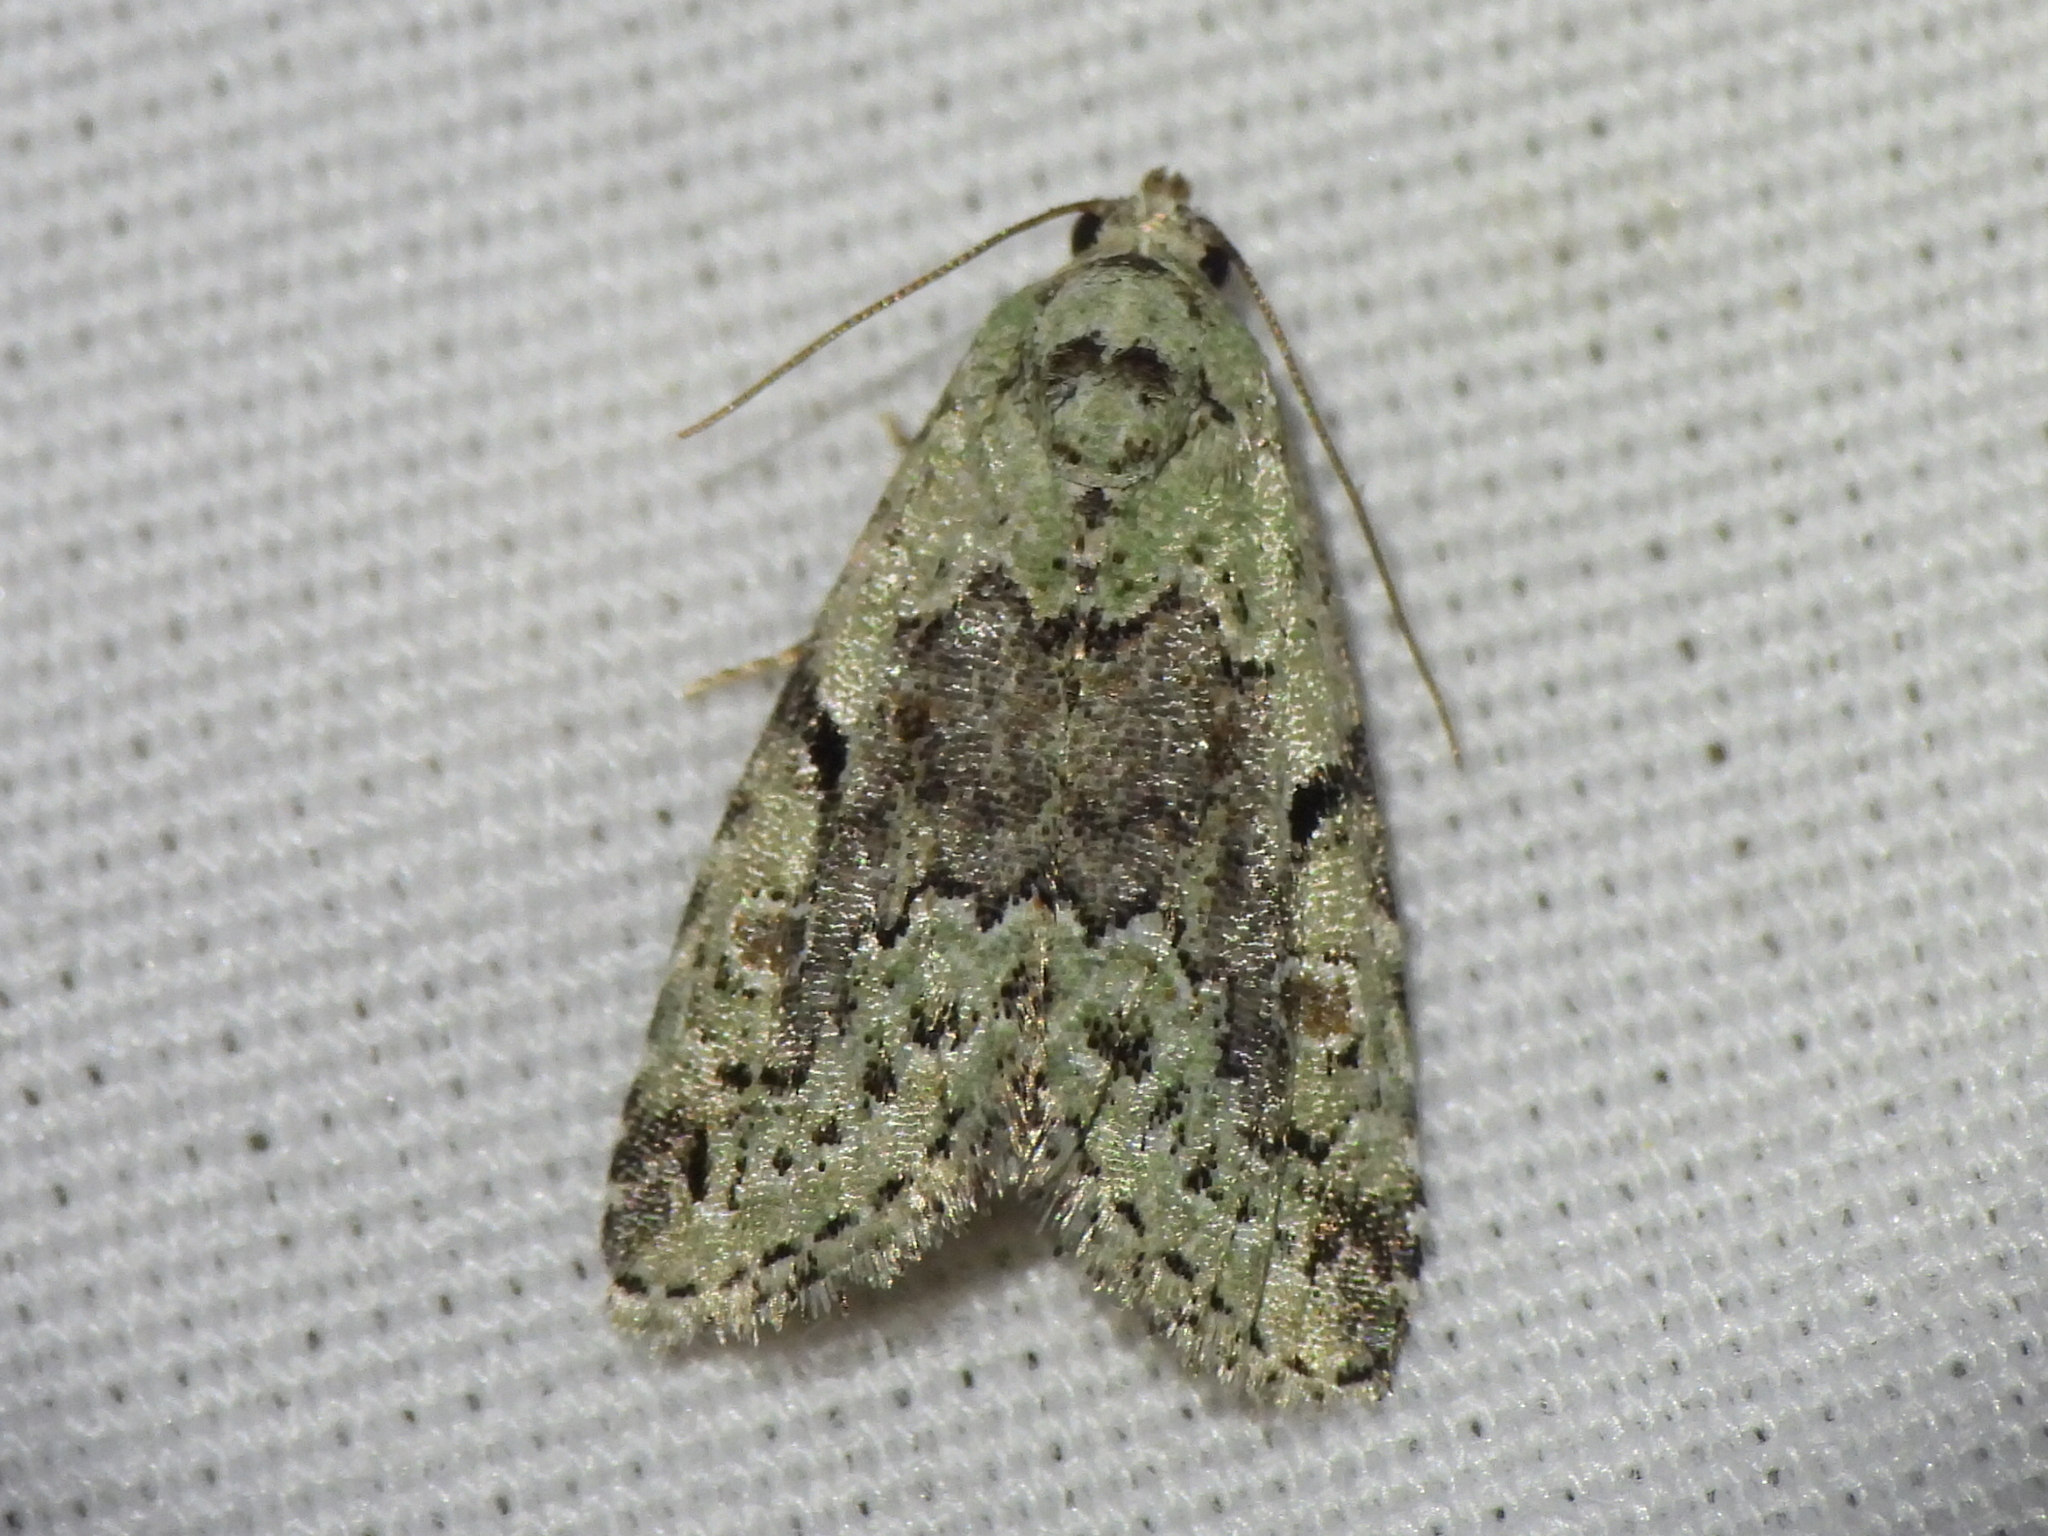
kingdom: Animalia
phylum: Arthropoda
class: Insecta
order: Lepidoptera
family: Noctuidae
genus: Maliattha
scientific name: Maliattha concinnimacula
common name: Red-spotted glyph
